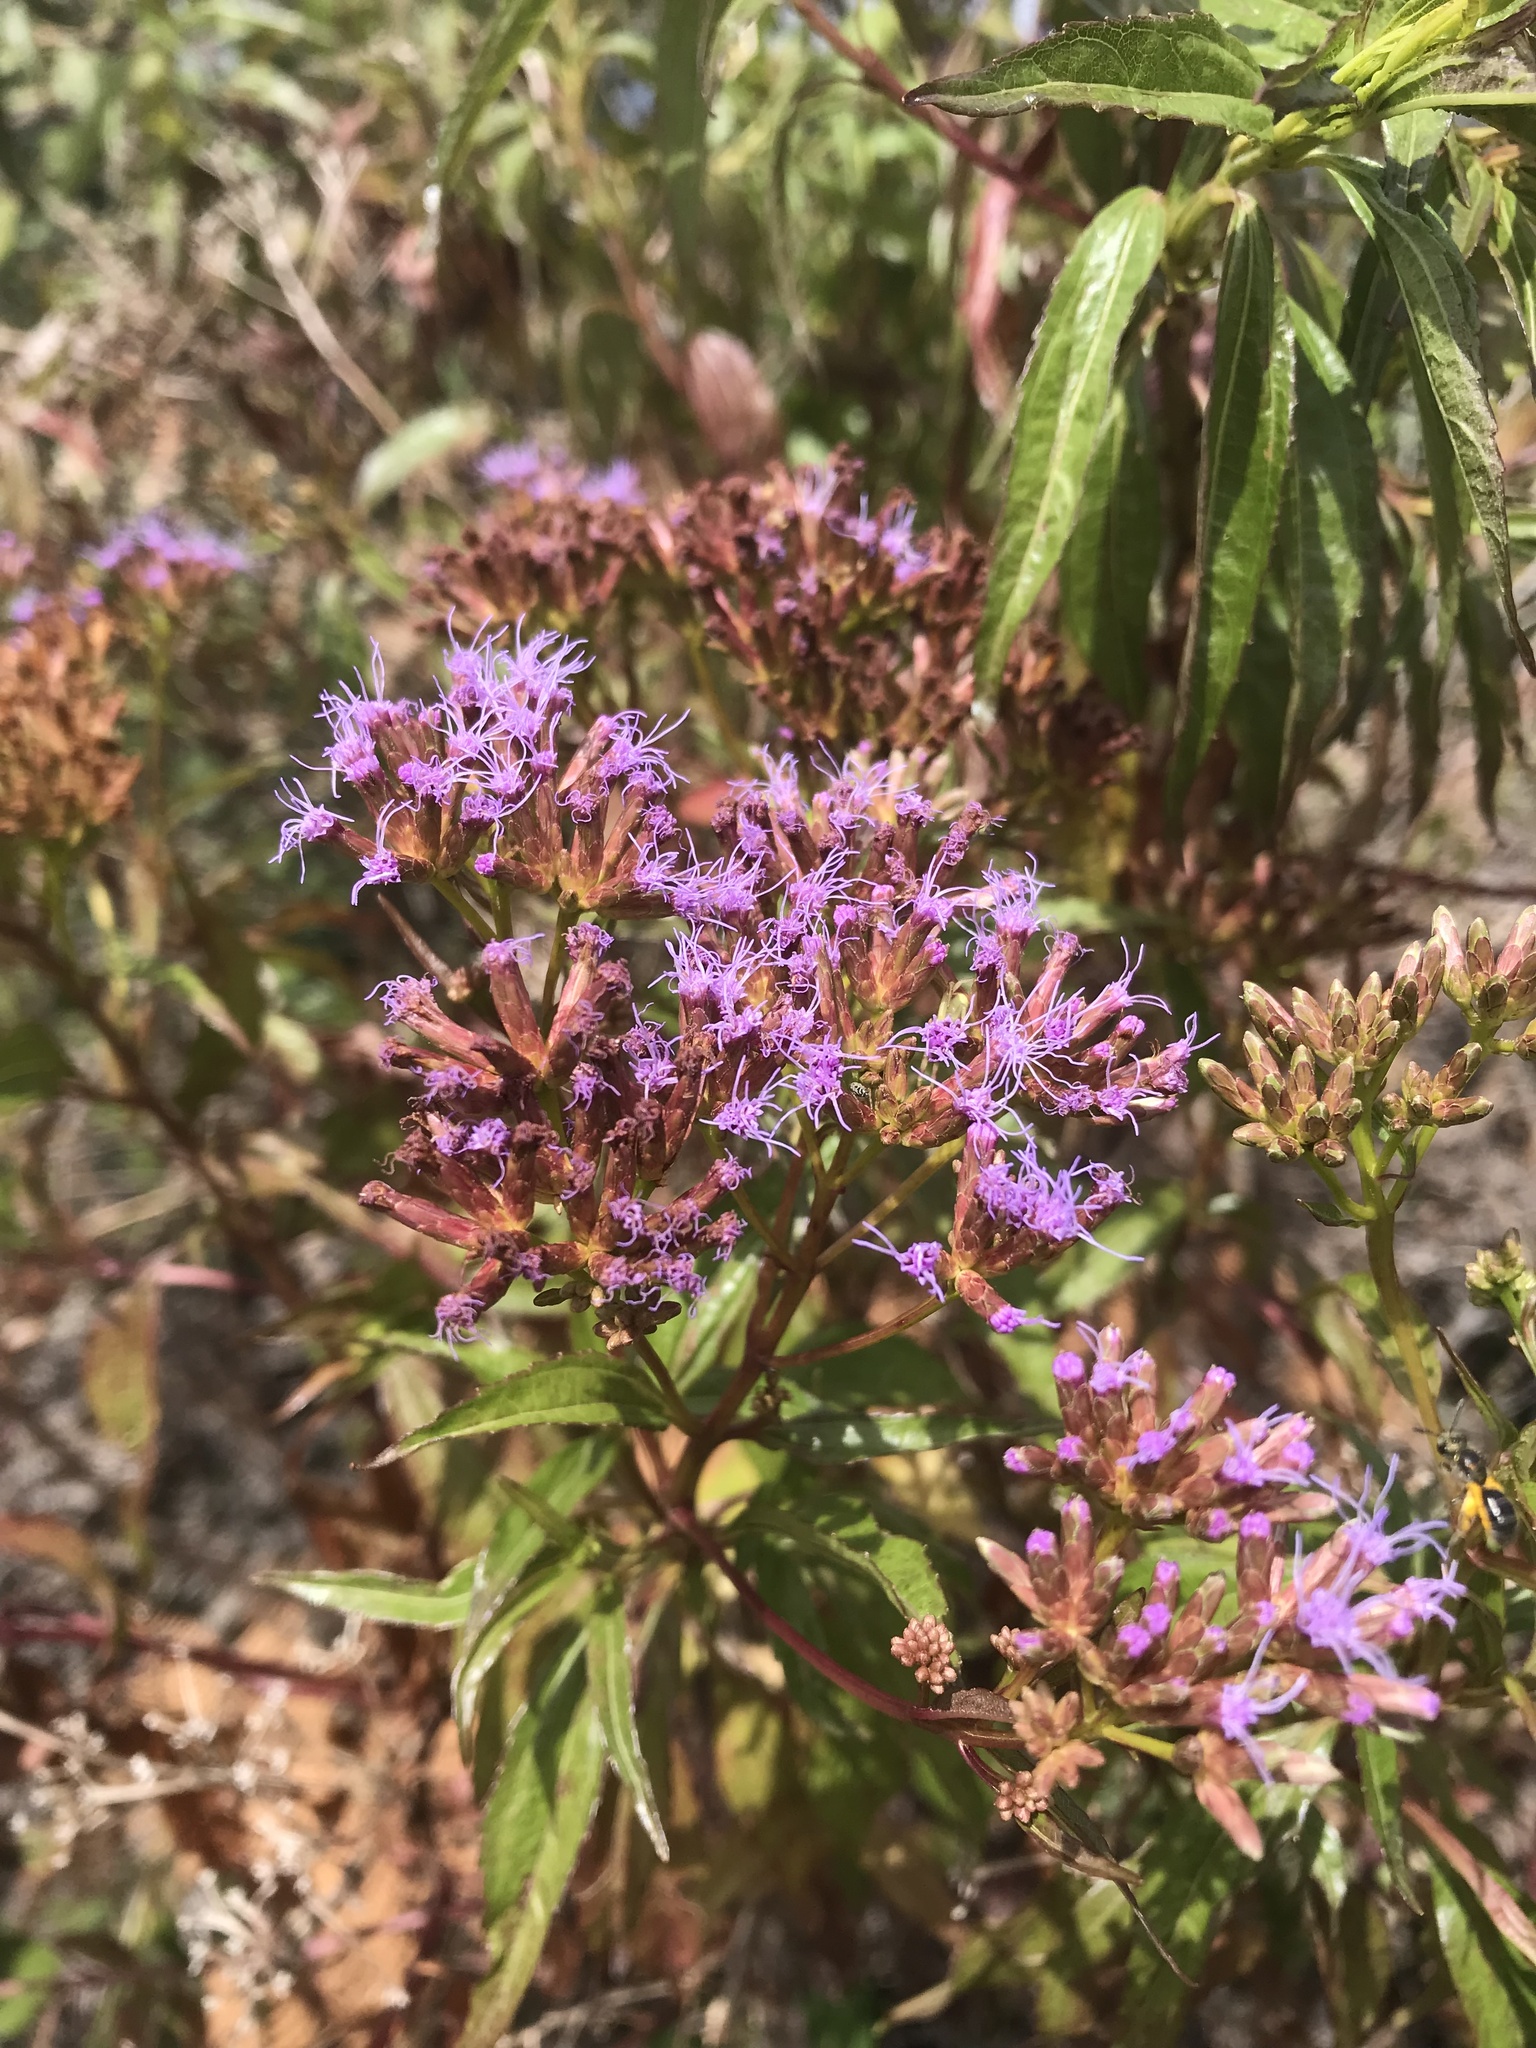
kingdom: Plantae
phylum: Tracheophyta
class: Magnoliopsida
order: Asterales
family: Asteraceae
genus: Chromolaena
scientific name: Chromolaena perglabra
